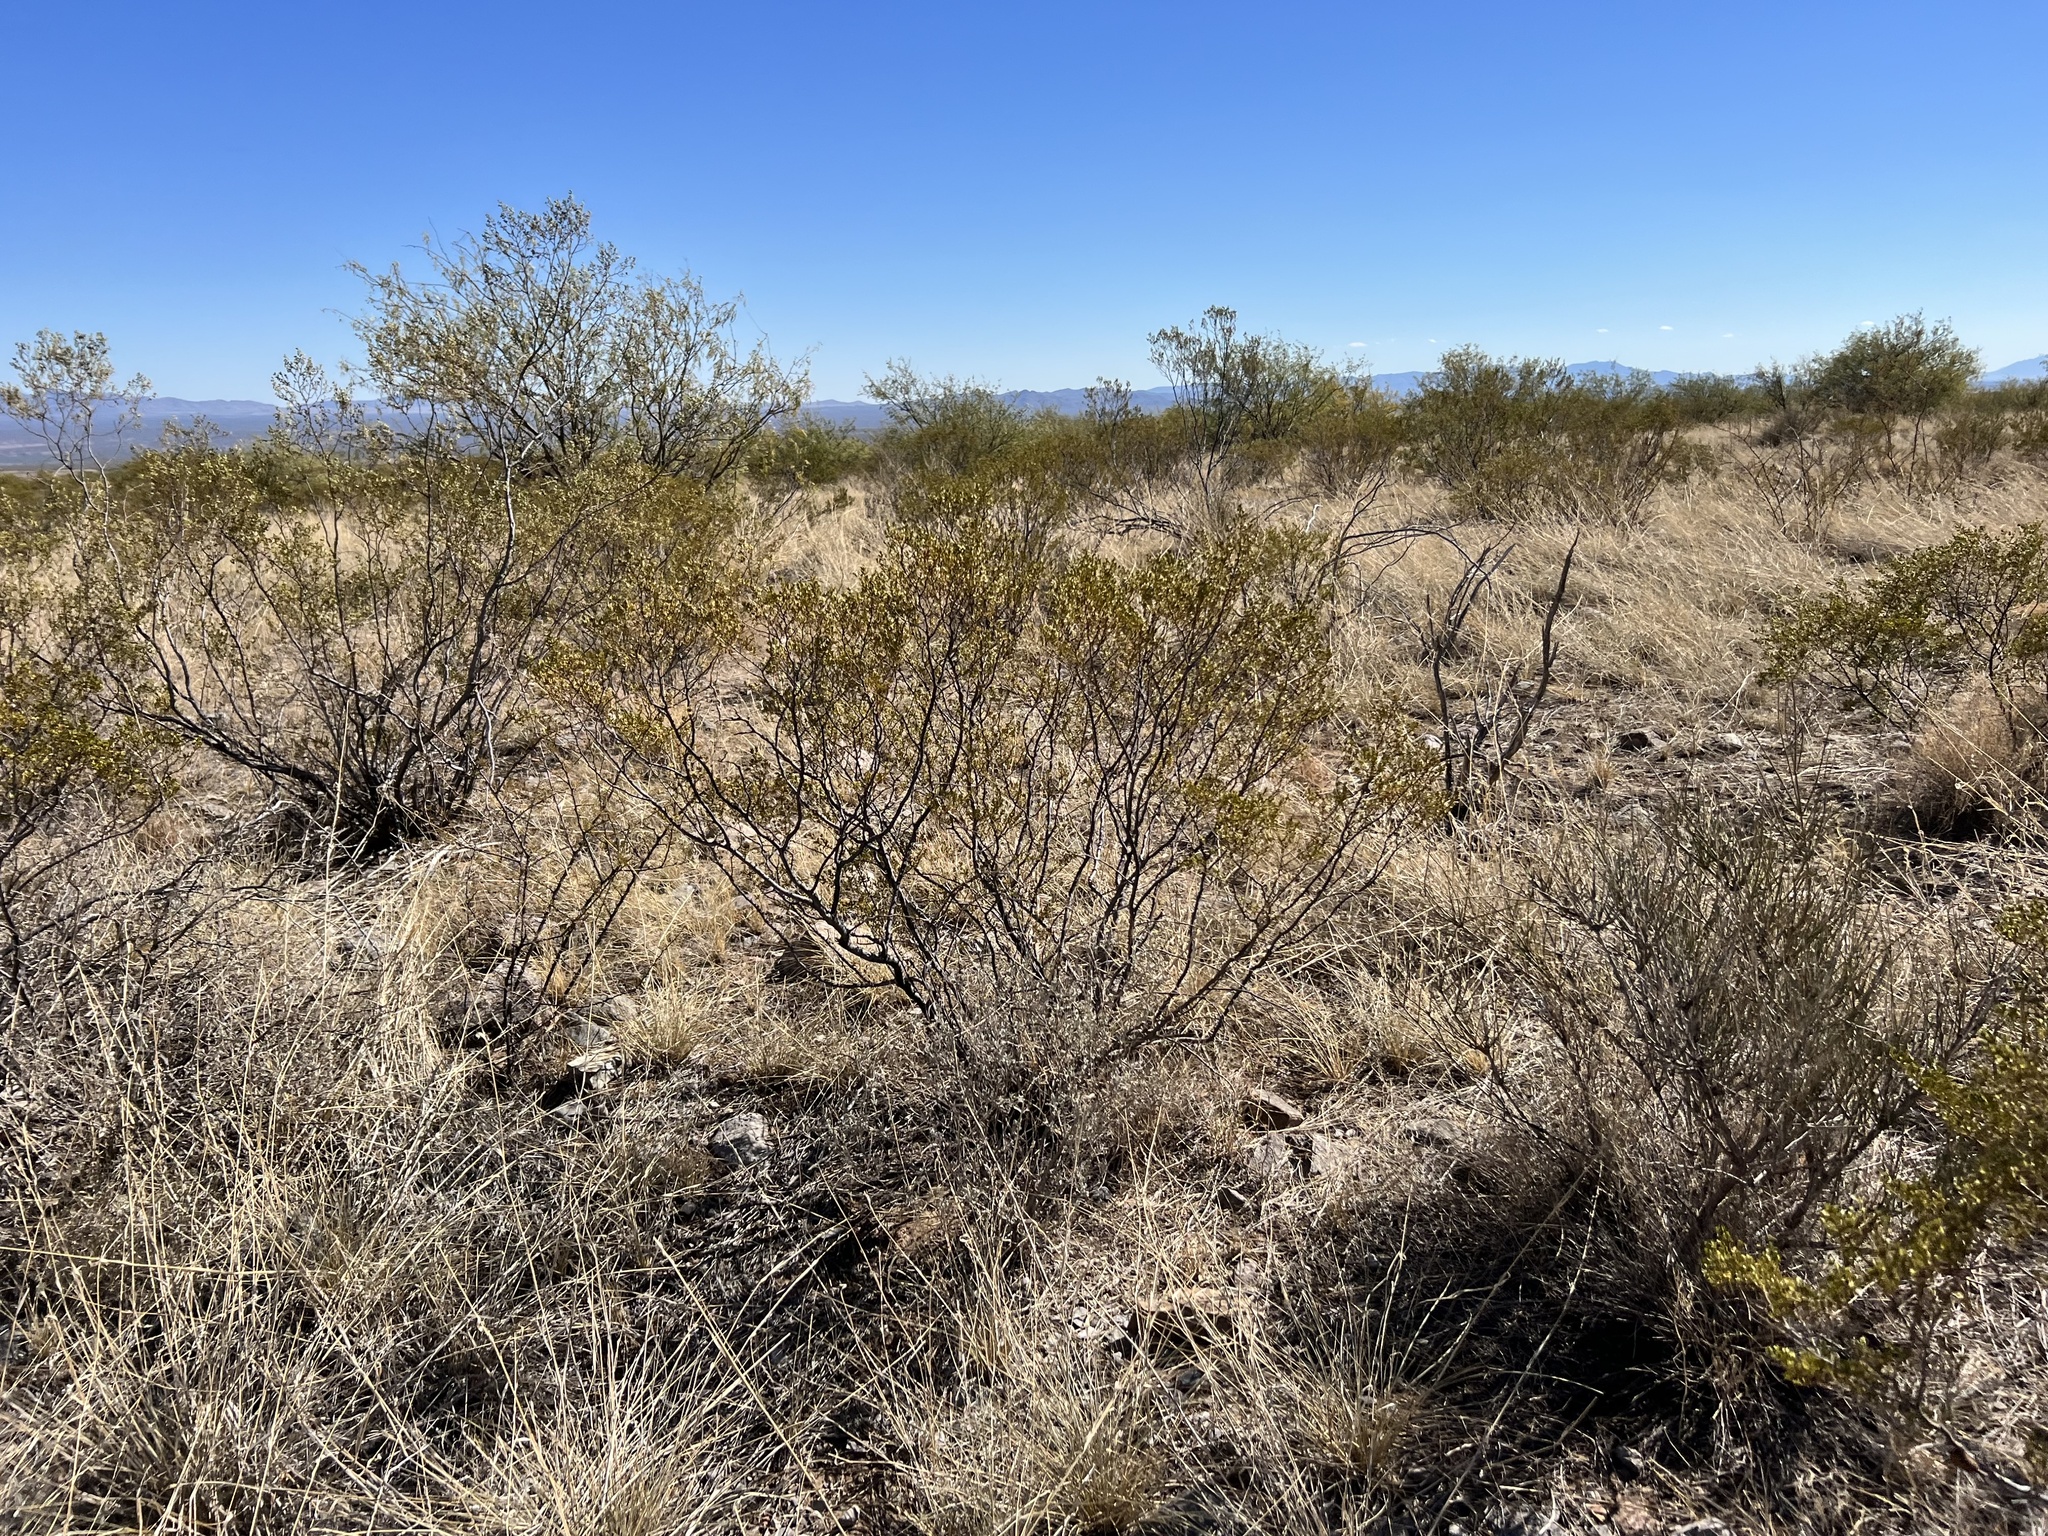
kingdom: Plantae
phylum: Tracheophyta
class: Magnoliopsida
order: Zygophyllales
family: Zygophyllaceae
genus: Larrea
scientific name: Larrea tridentata
